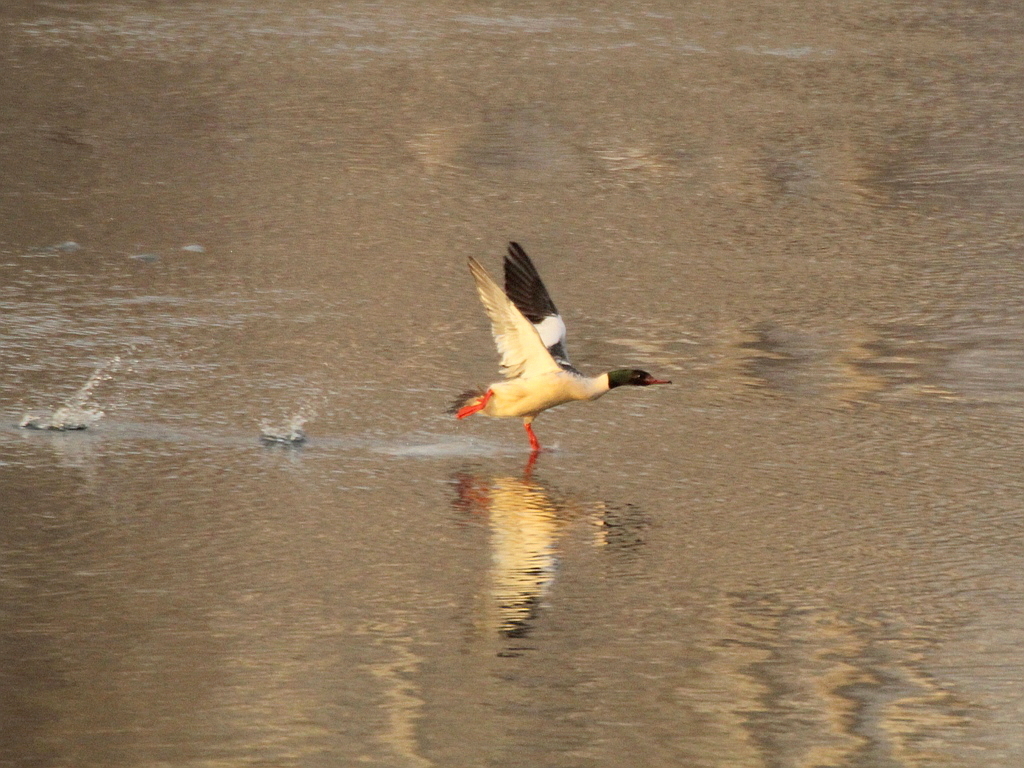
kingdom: Animalia
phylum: Chordata
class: Aves
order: Anseriformes
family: Anatidae
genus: Mergus
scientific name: Mergus merganser
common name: Common merganser
